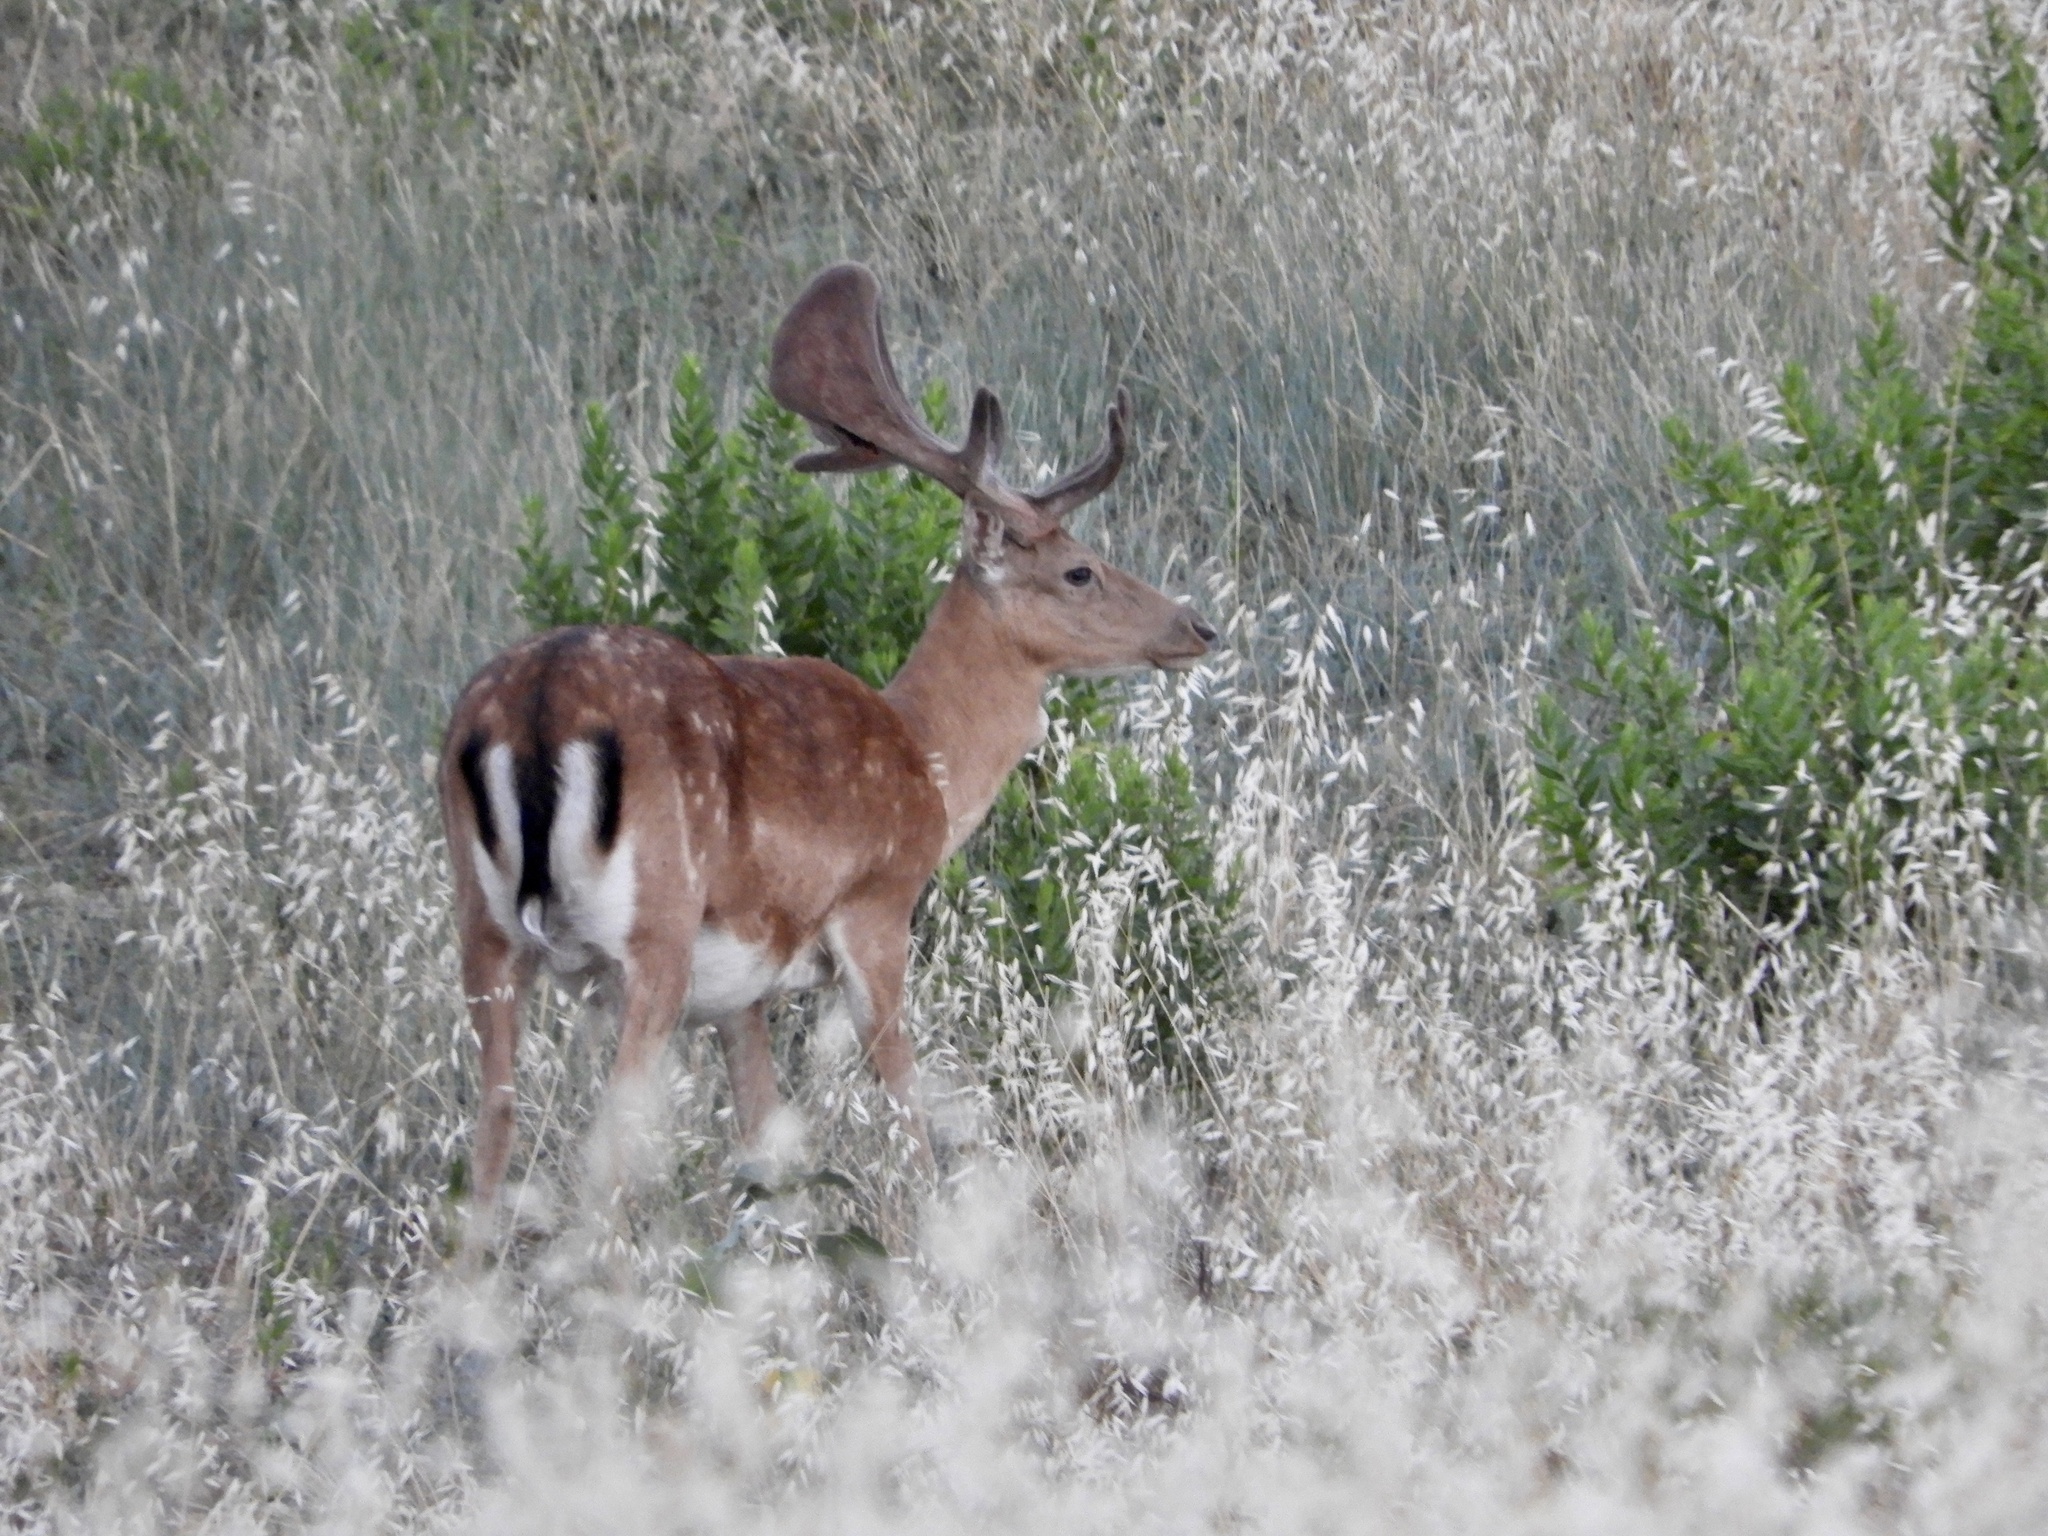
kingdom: Animalia
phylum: Chordata
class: Mammalia
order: Artiodactyla
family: Cervidae
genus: Dama
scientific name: Dama dama
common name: Fallow deer
